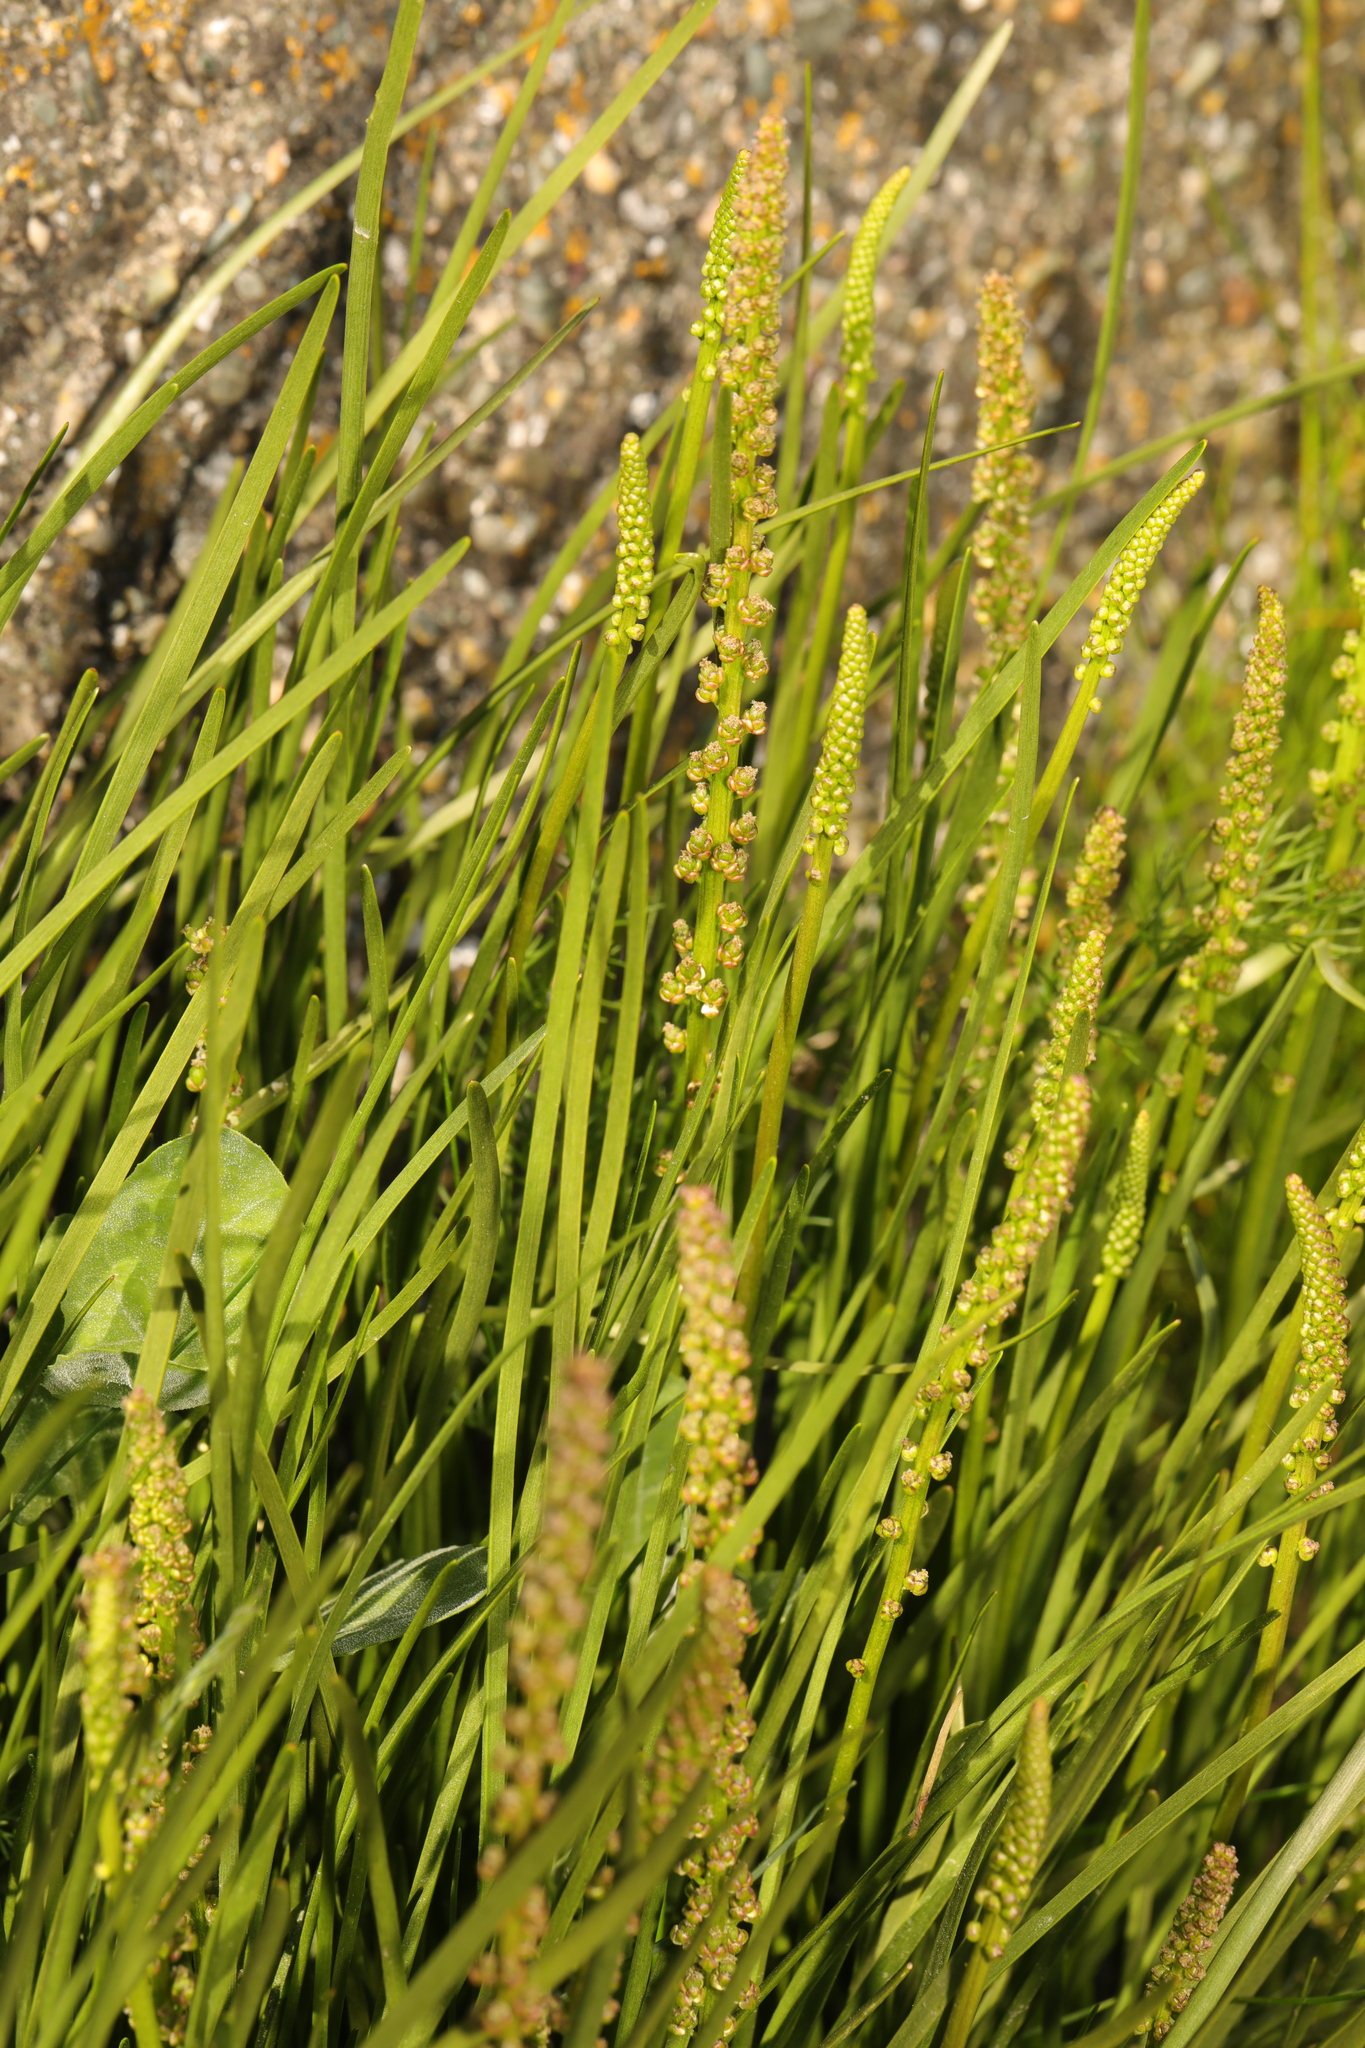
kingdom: Plantae
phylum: Tracheophyta
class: Liliopsida
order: Alismatales
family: Juncaginaceae
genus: Triglochin
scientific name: Triglochin maritima
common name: Sea arrowgrass
